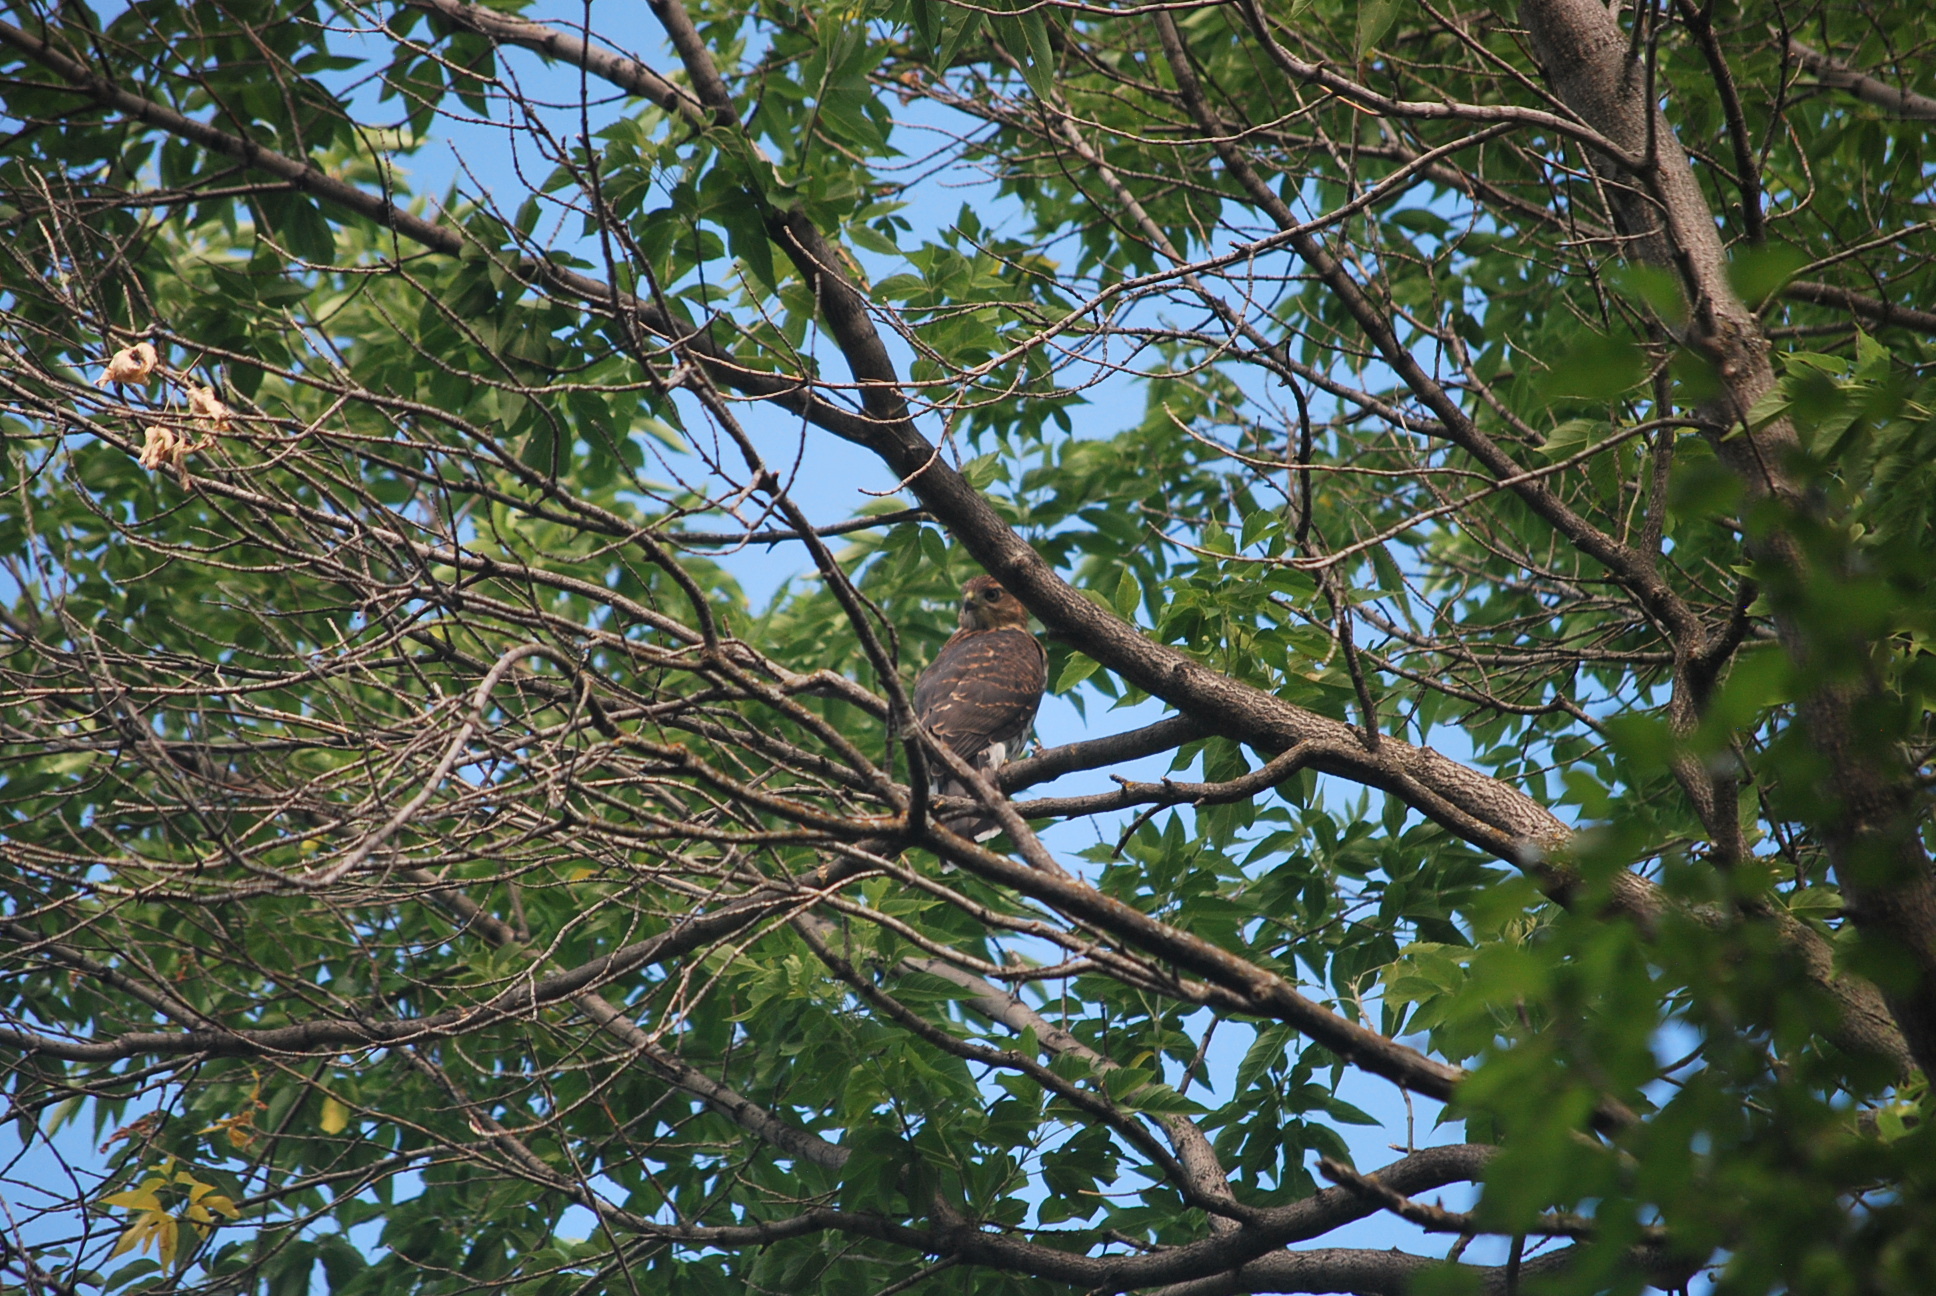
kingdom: Animalia
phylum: Chordata
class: Aves
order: Accipitriformes
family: Accipitridae
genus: Accipiter
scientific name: Accipiter cooperii
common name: Cooper's hawk
